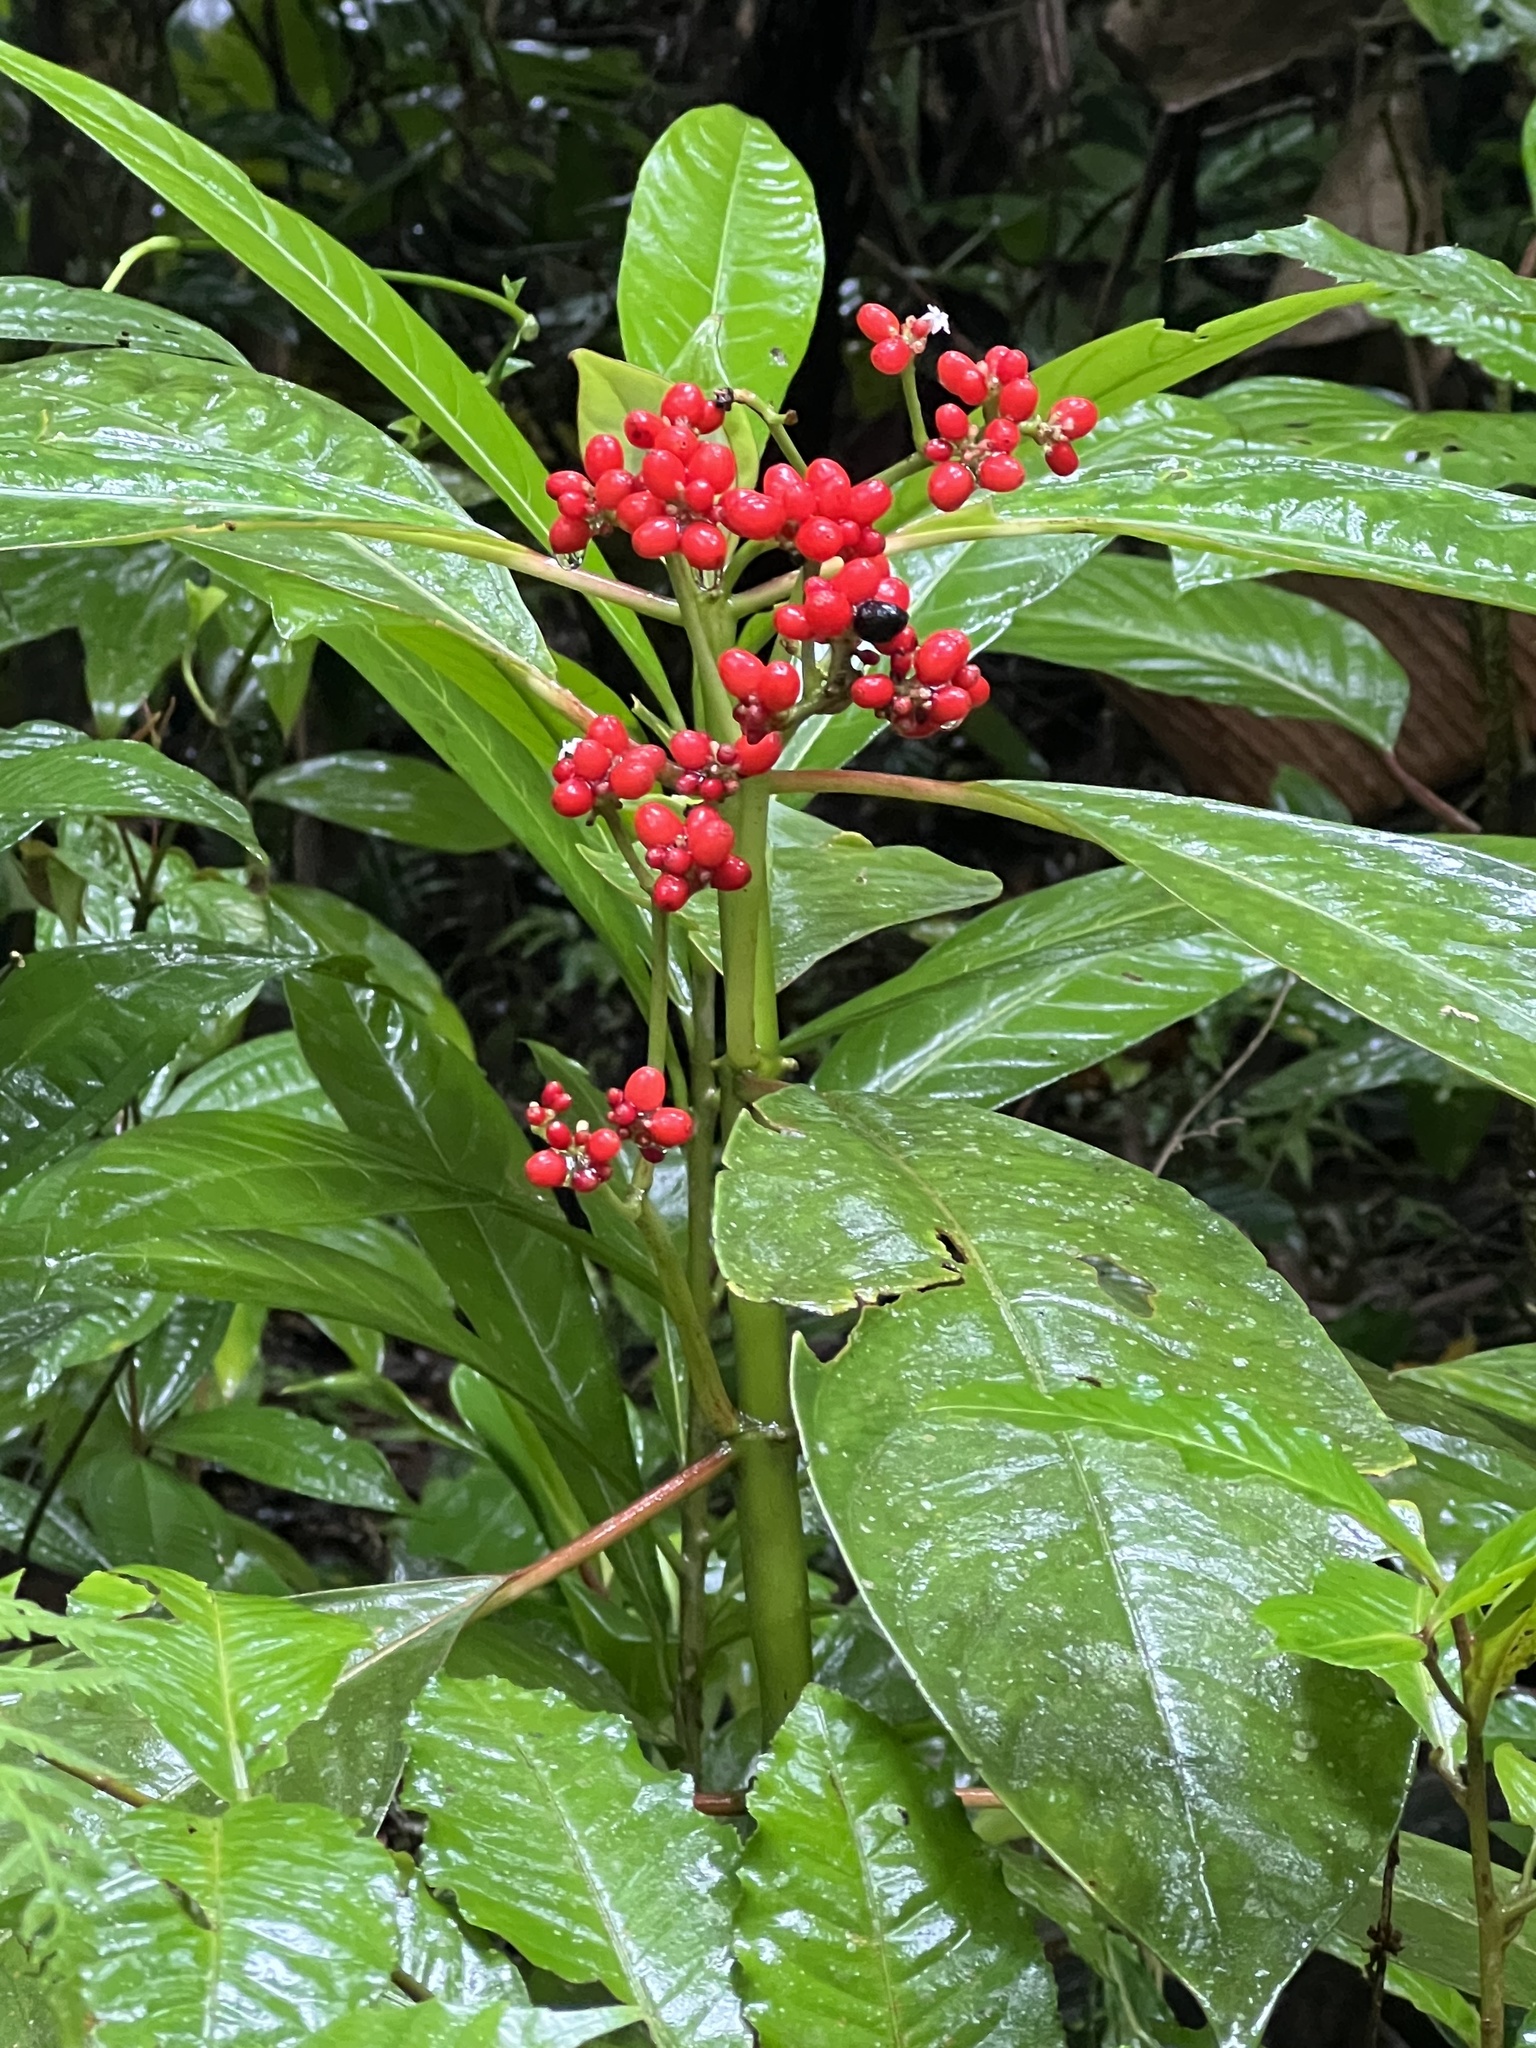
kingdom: Plantae
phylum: Tracheophyta
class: Magnoliopsida
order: Gentianales
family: Rubiaceae
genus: Notopleura
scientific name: Notopleura uliginosa
